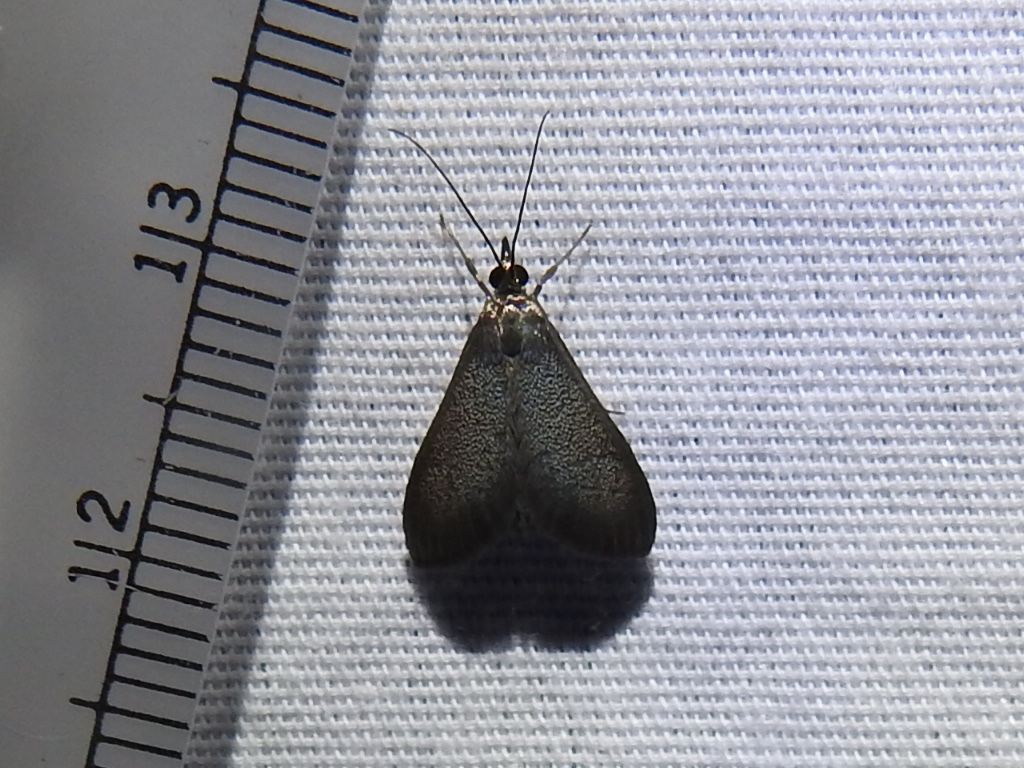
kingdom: Animalia
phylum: Arthropoda
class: Insecta
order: Lepidoptera
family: Crambidae
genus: Pyrausta
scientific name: Pyrausta demantrialis
